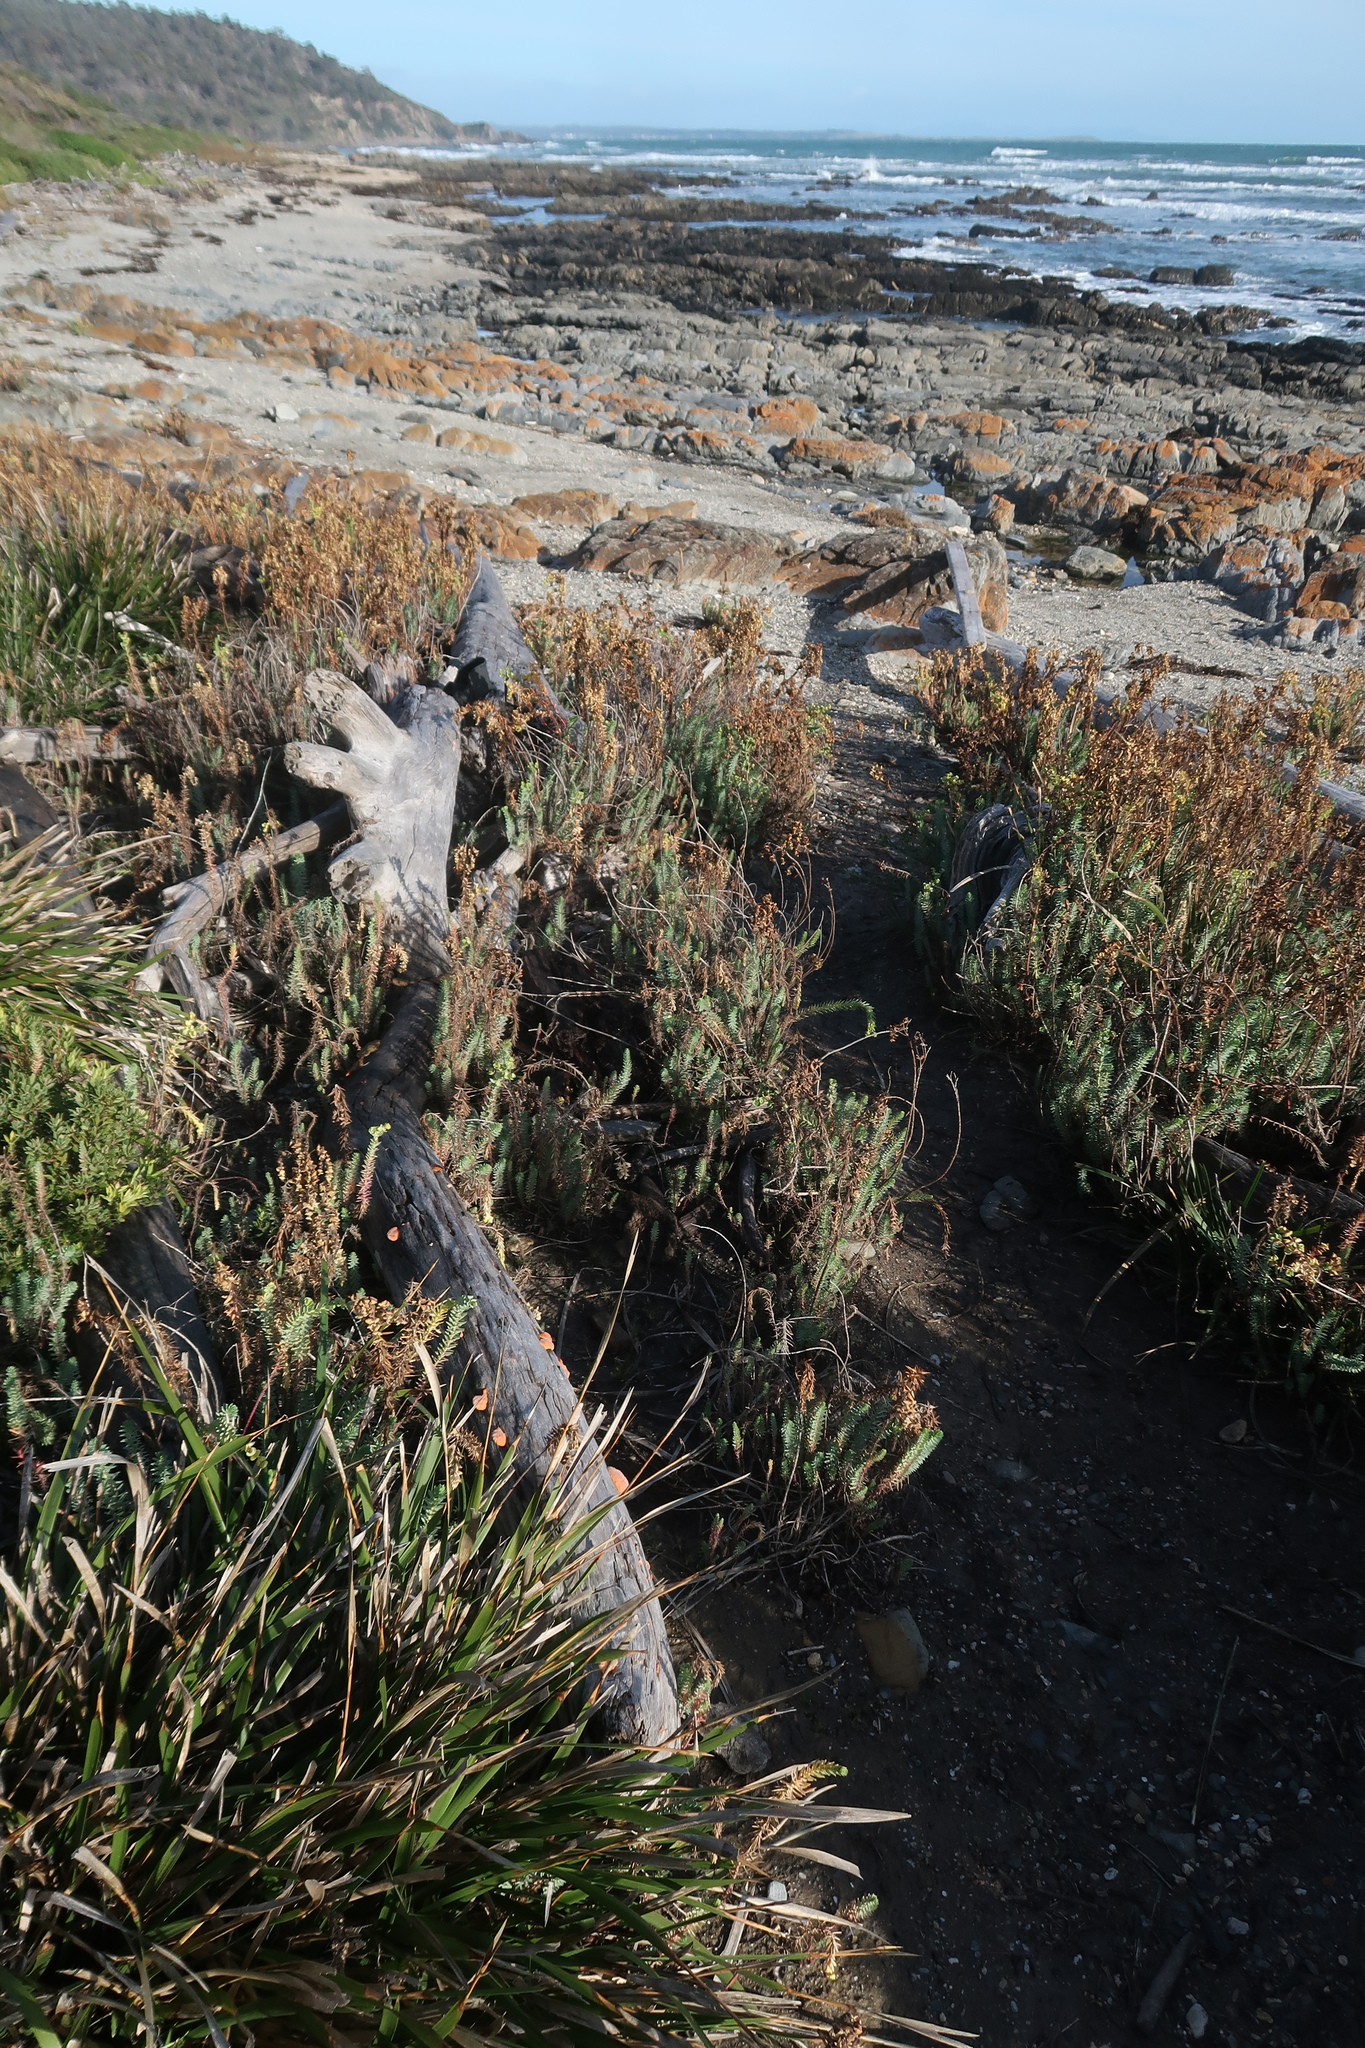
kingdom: Fungi
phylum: Basidiomycota
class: Agaricomycetes
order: Polyporales
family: Polyporaceae
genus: Trametes
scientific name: Trametes coccinea
